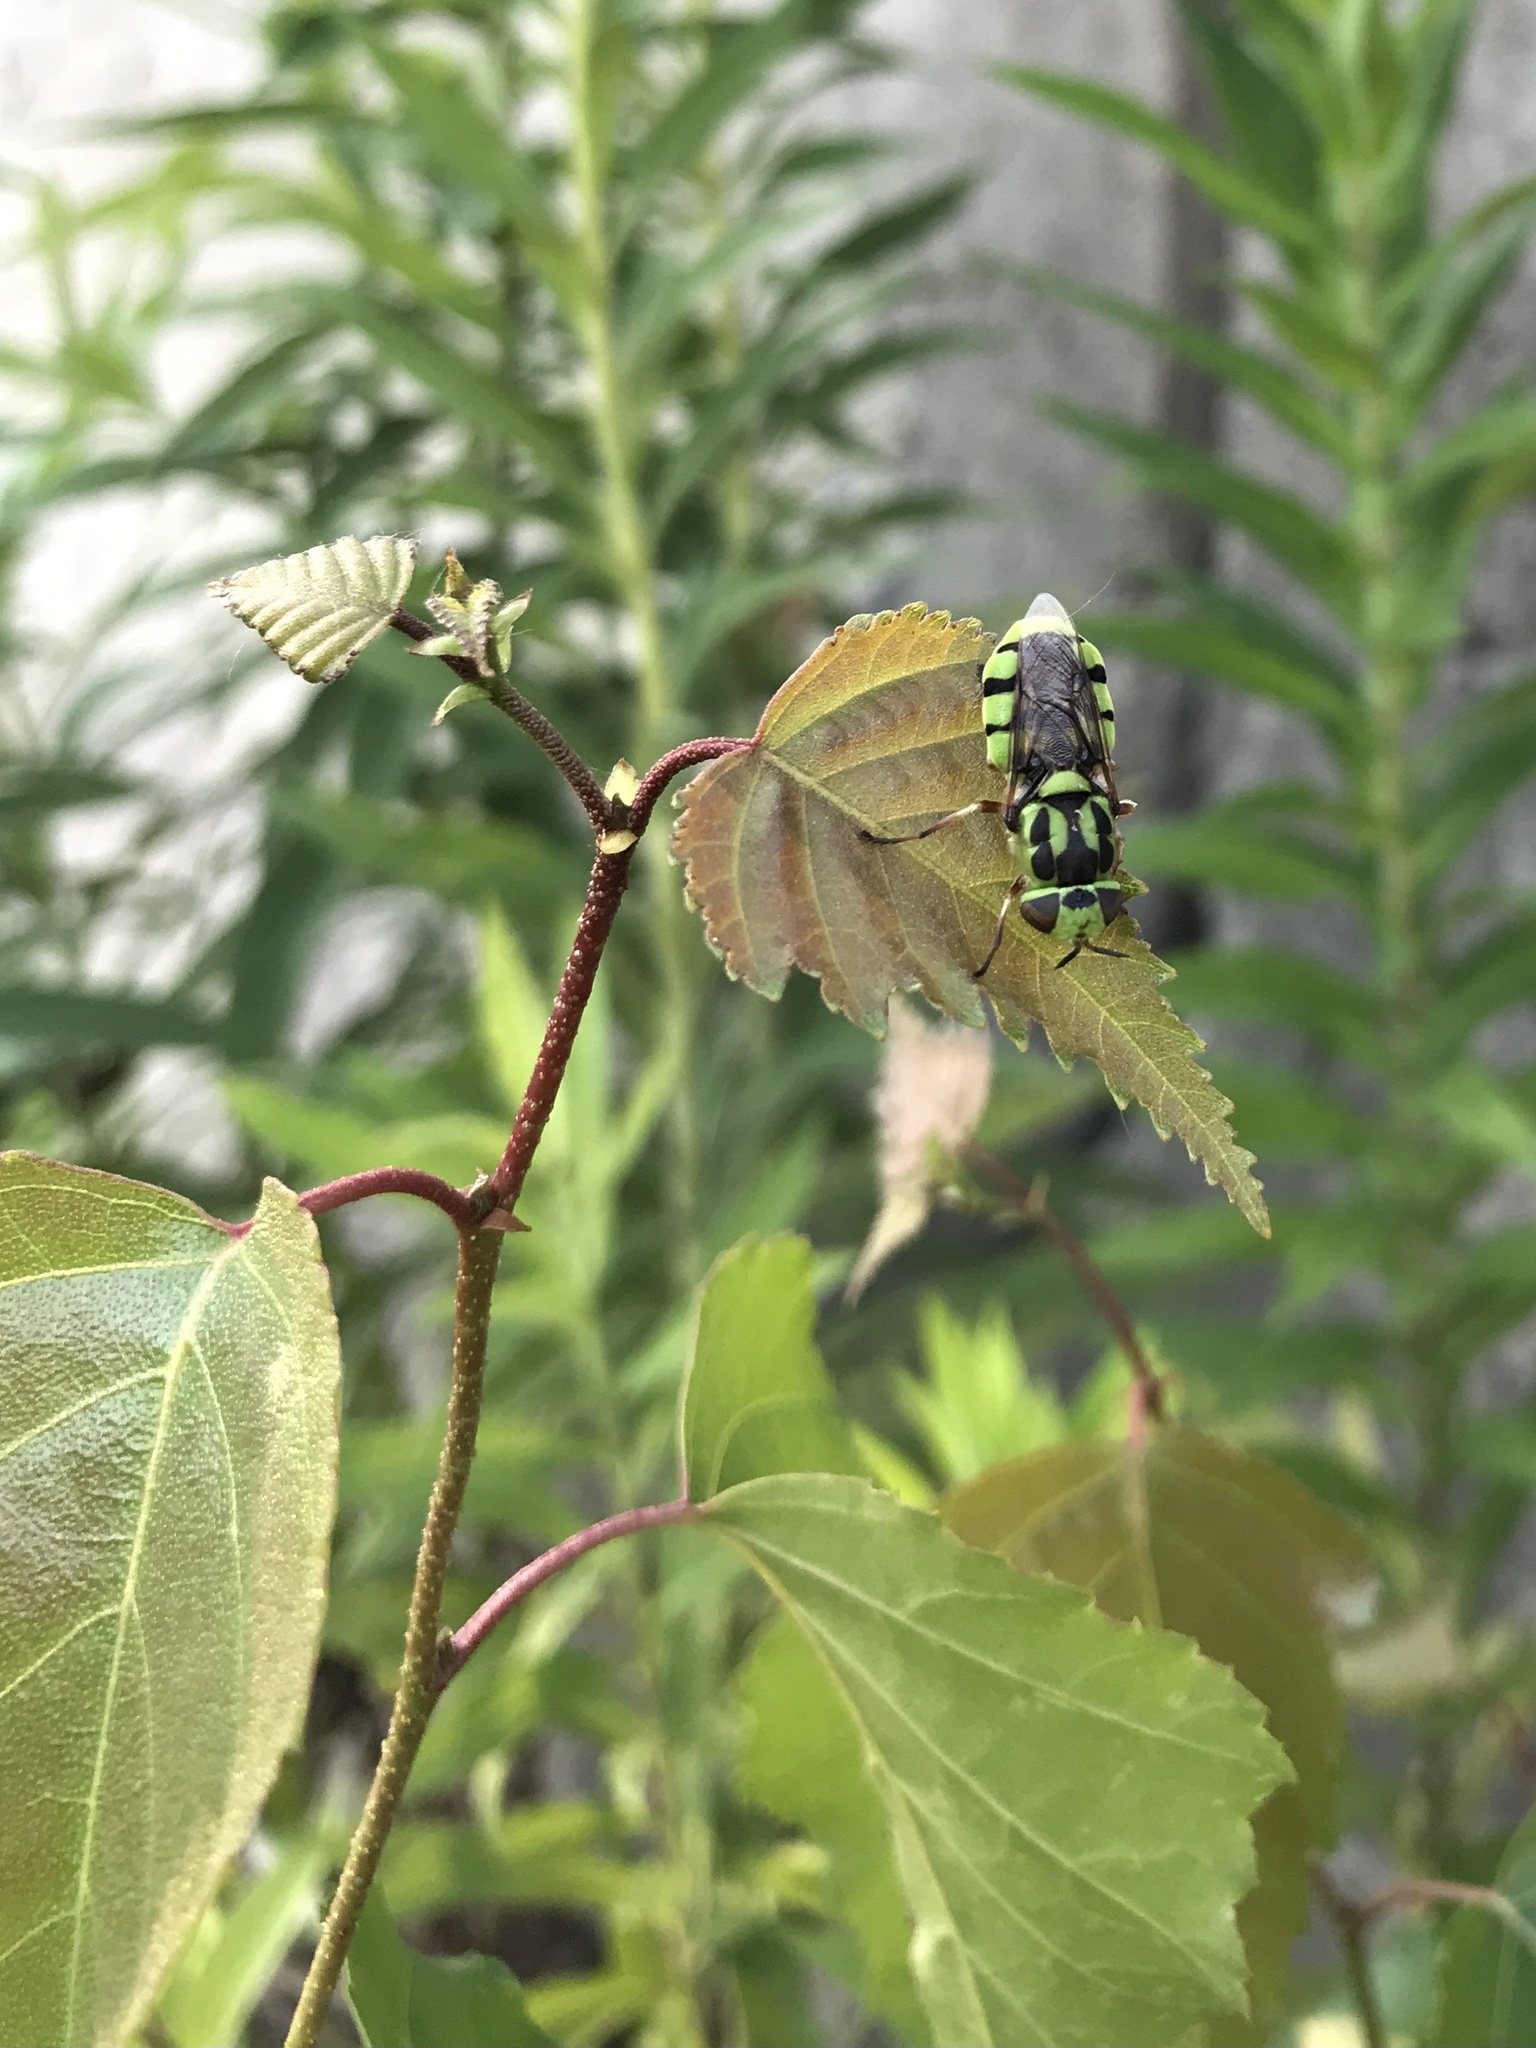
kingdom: Animalia
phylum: Arthropoda
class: Insecta
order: Diptera
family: Stratiomyidae
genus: Hedriodiscus
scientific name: Hedriodiscus binotatus
